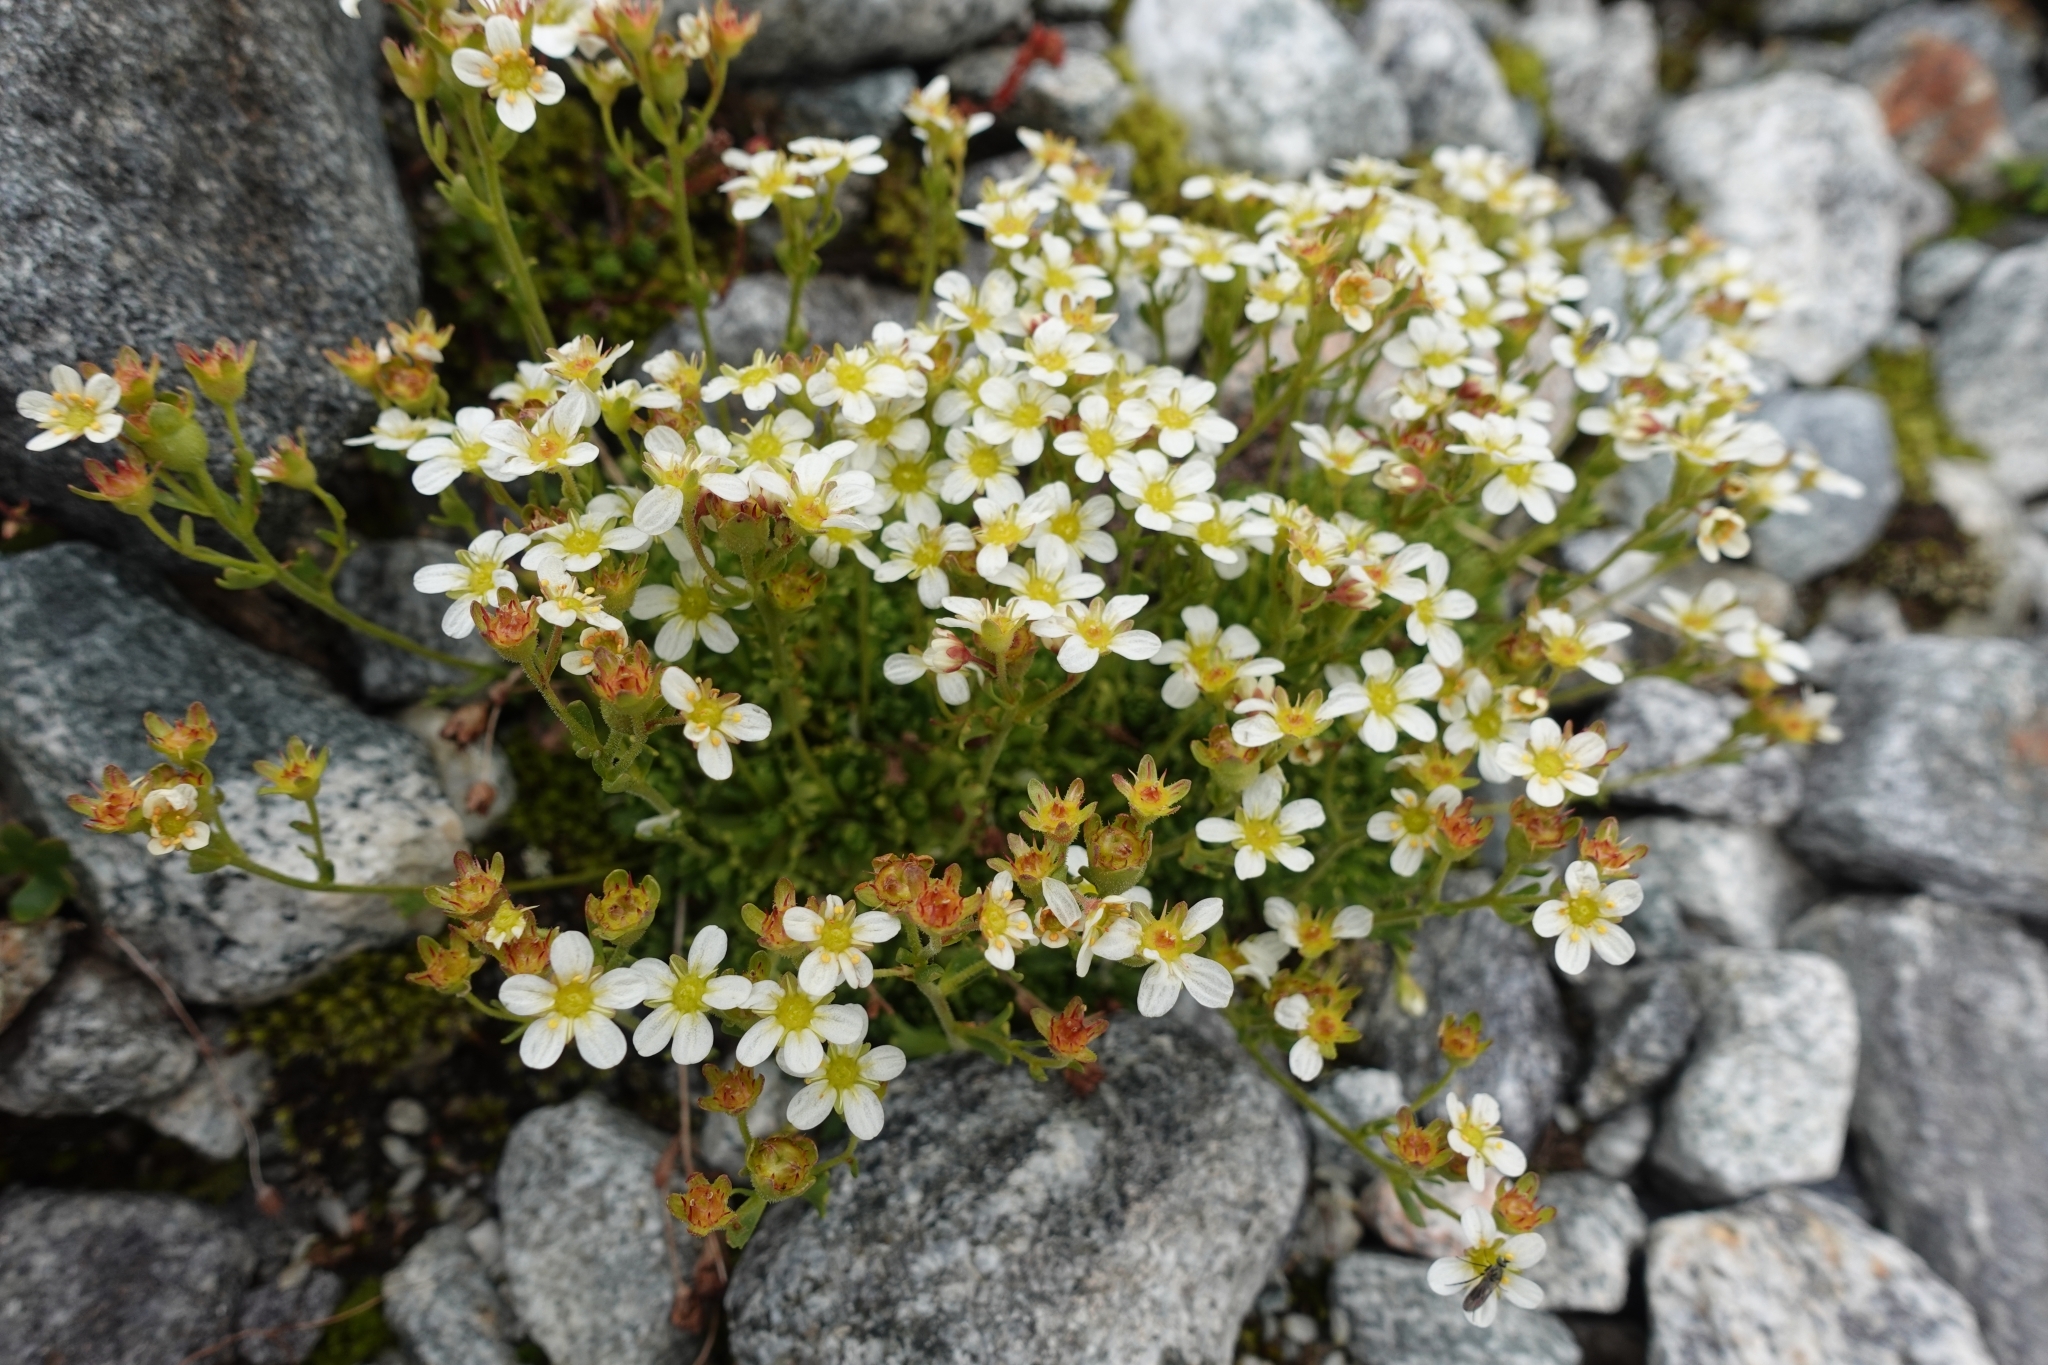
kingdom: Plantae
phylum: Tracheophyta
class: Magnoliopsida
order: Saxifragales
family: Saxifragaceae
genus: Saxifraga
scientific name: Saxifraga exarata
